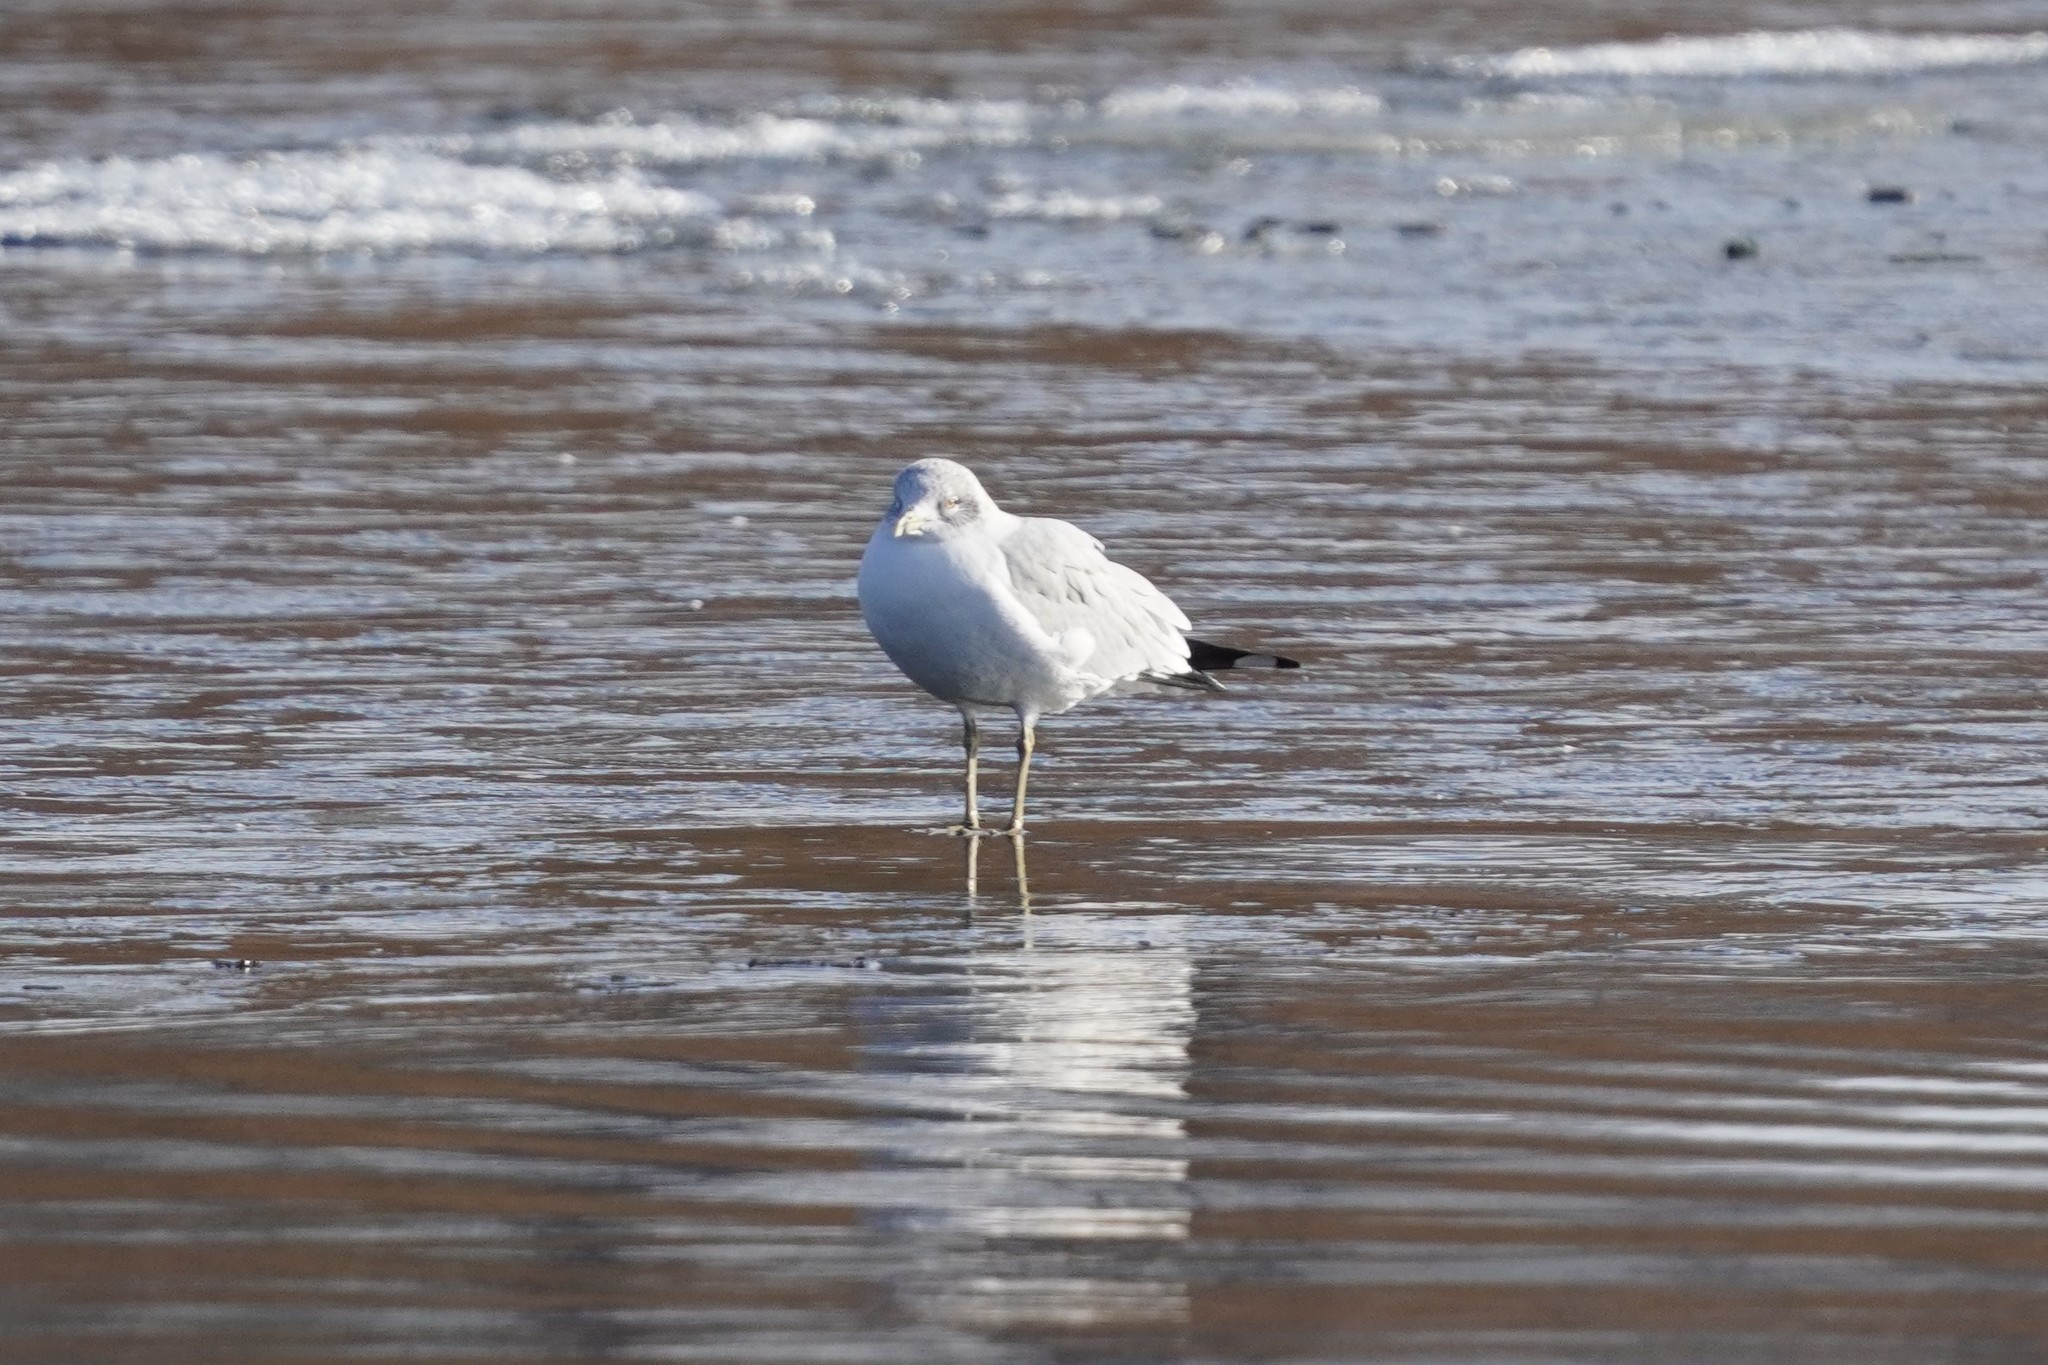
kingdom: Animalia
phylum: Chordata
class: Aves
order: Charadriiformes
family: Laridae
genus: Larus
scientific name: Larus delawarensis
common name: Ring-billed gull
